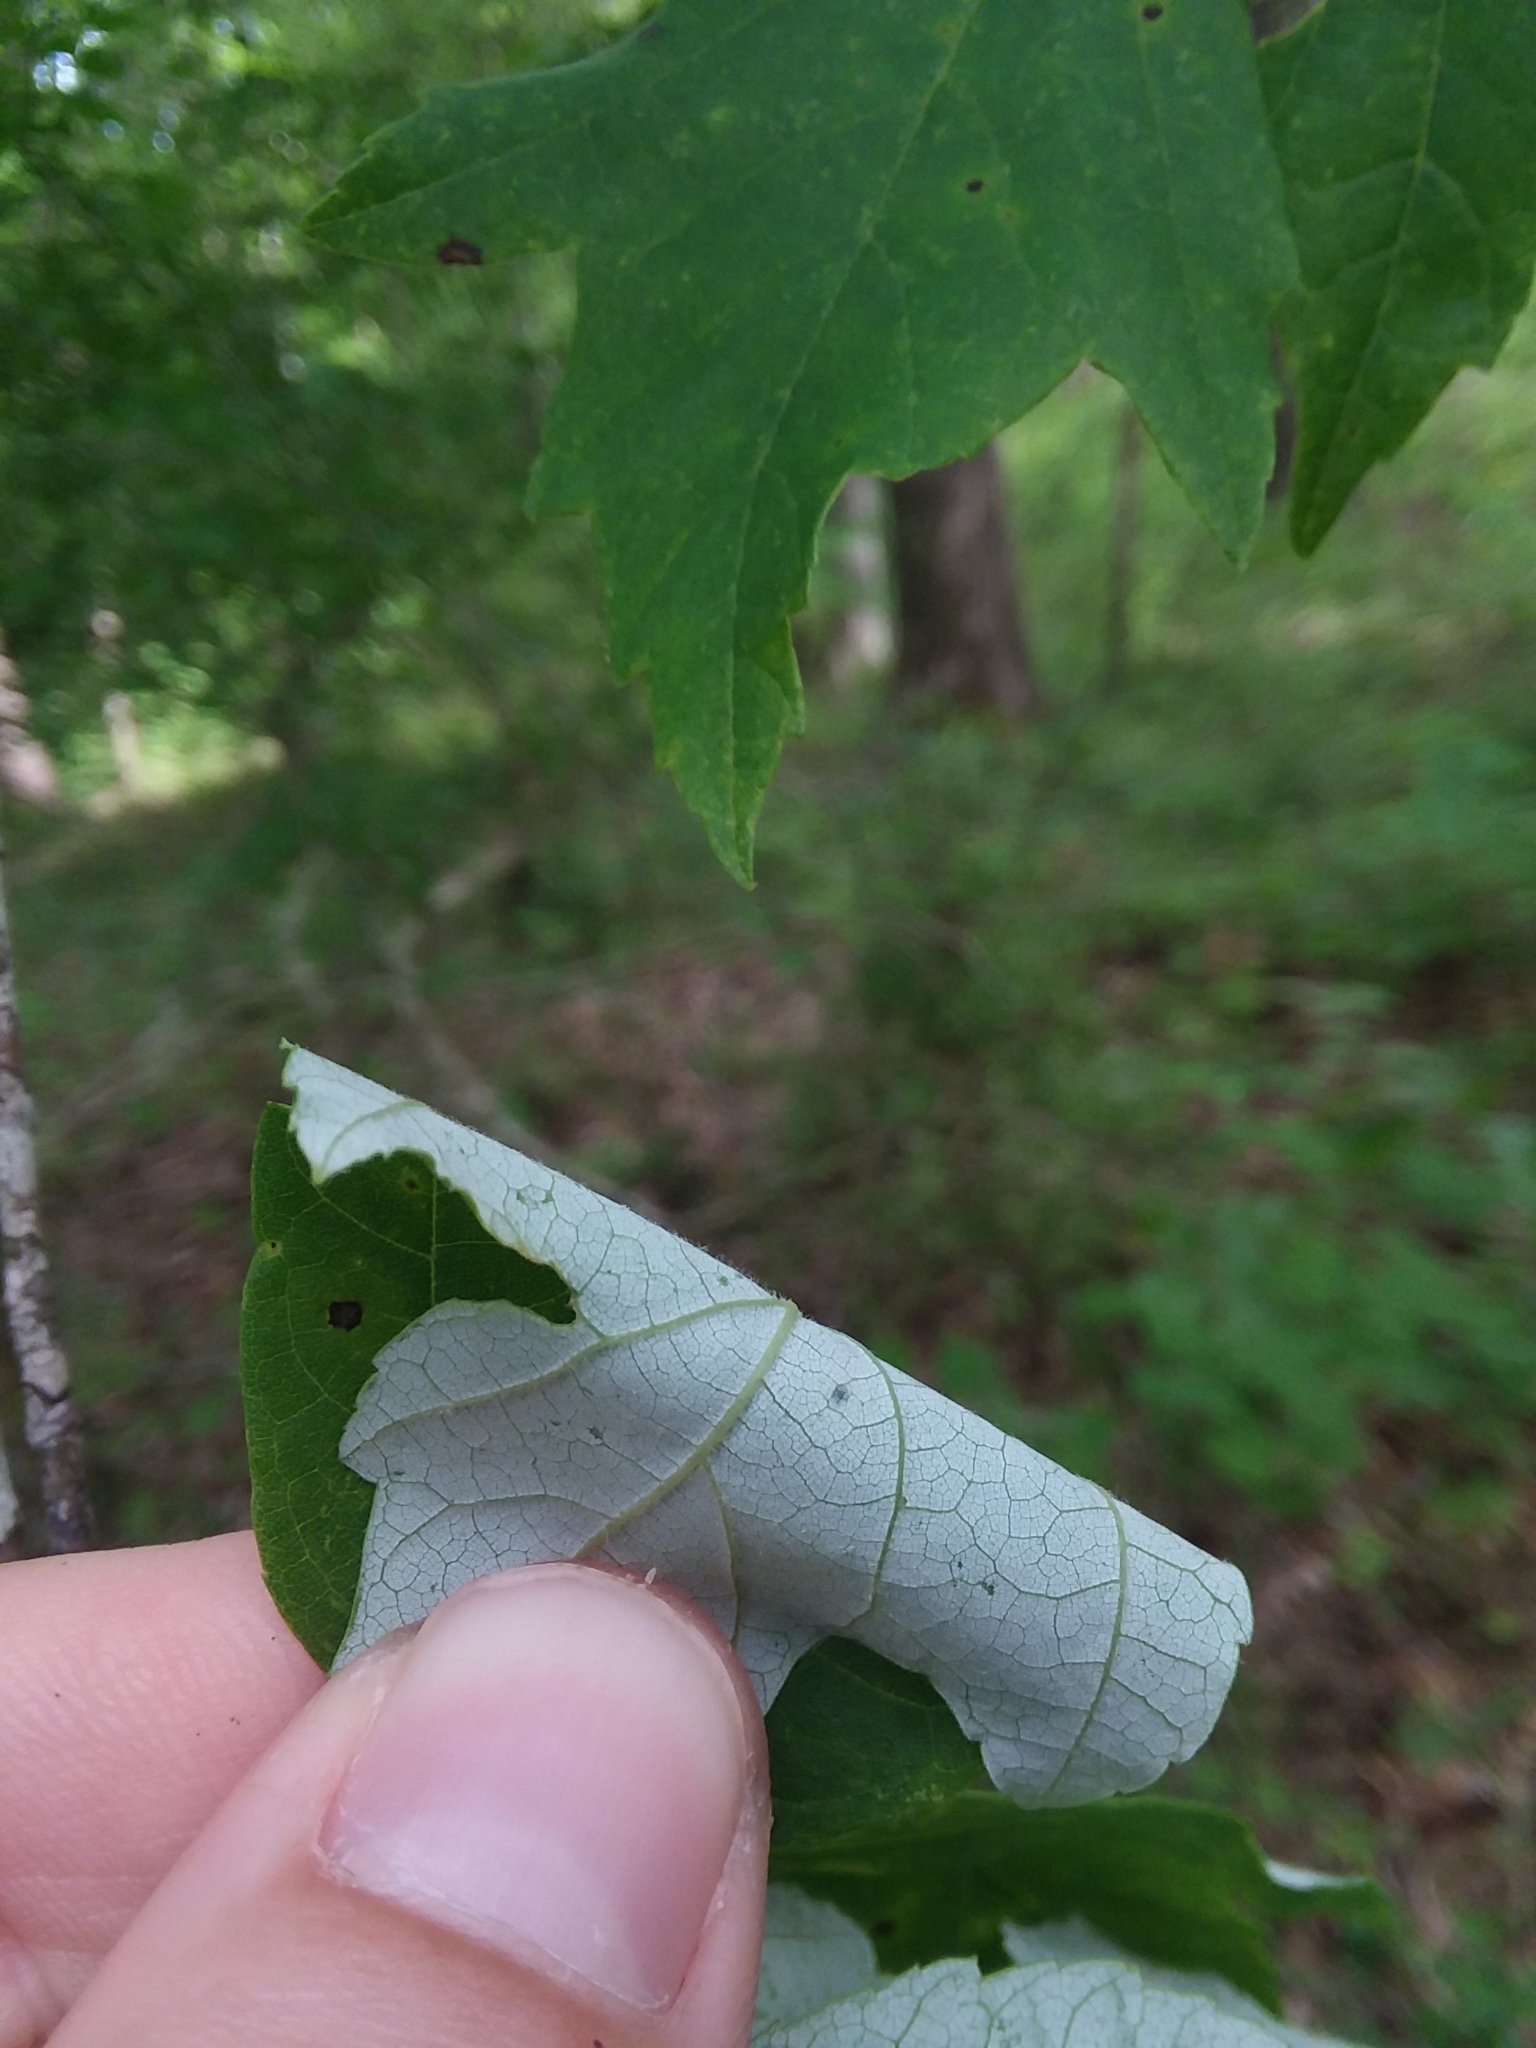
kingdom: Plantae
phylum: Tracheophyta
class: Magnoliopsida
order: Sapindales
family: Sapindaceae
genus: Acer
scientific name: Acer rubrum
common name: Red maple
